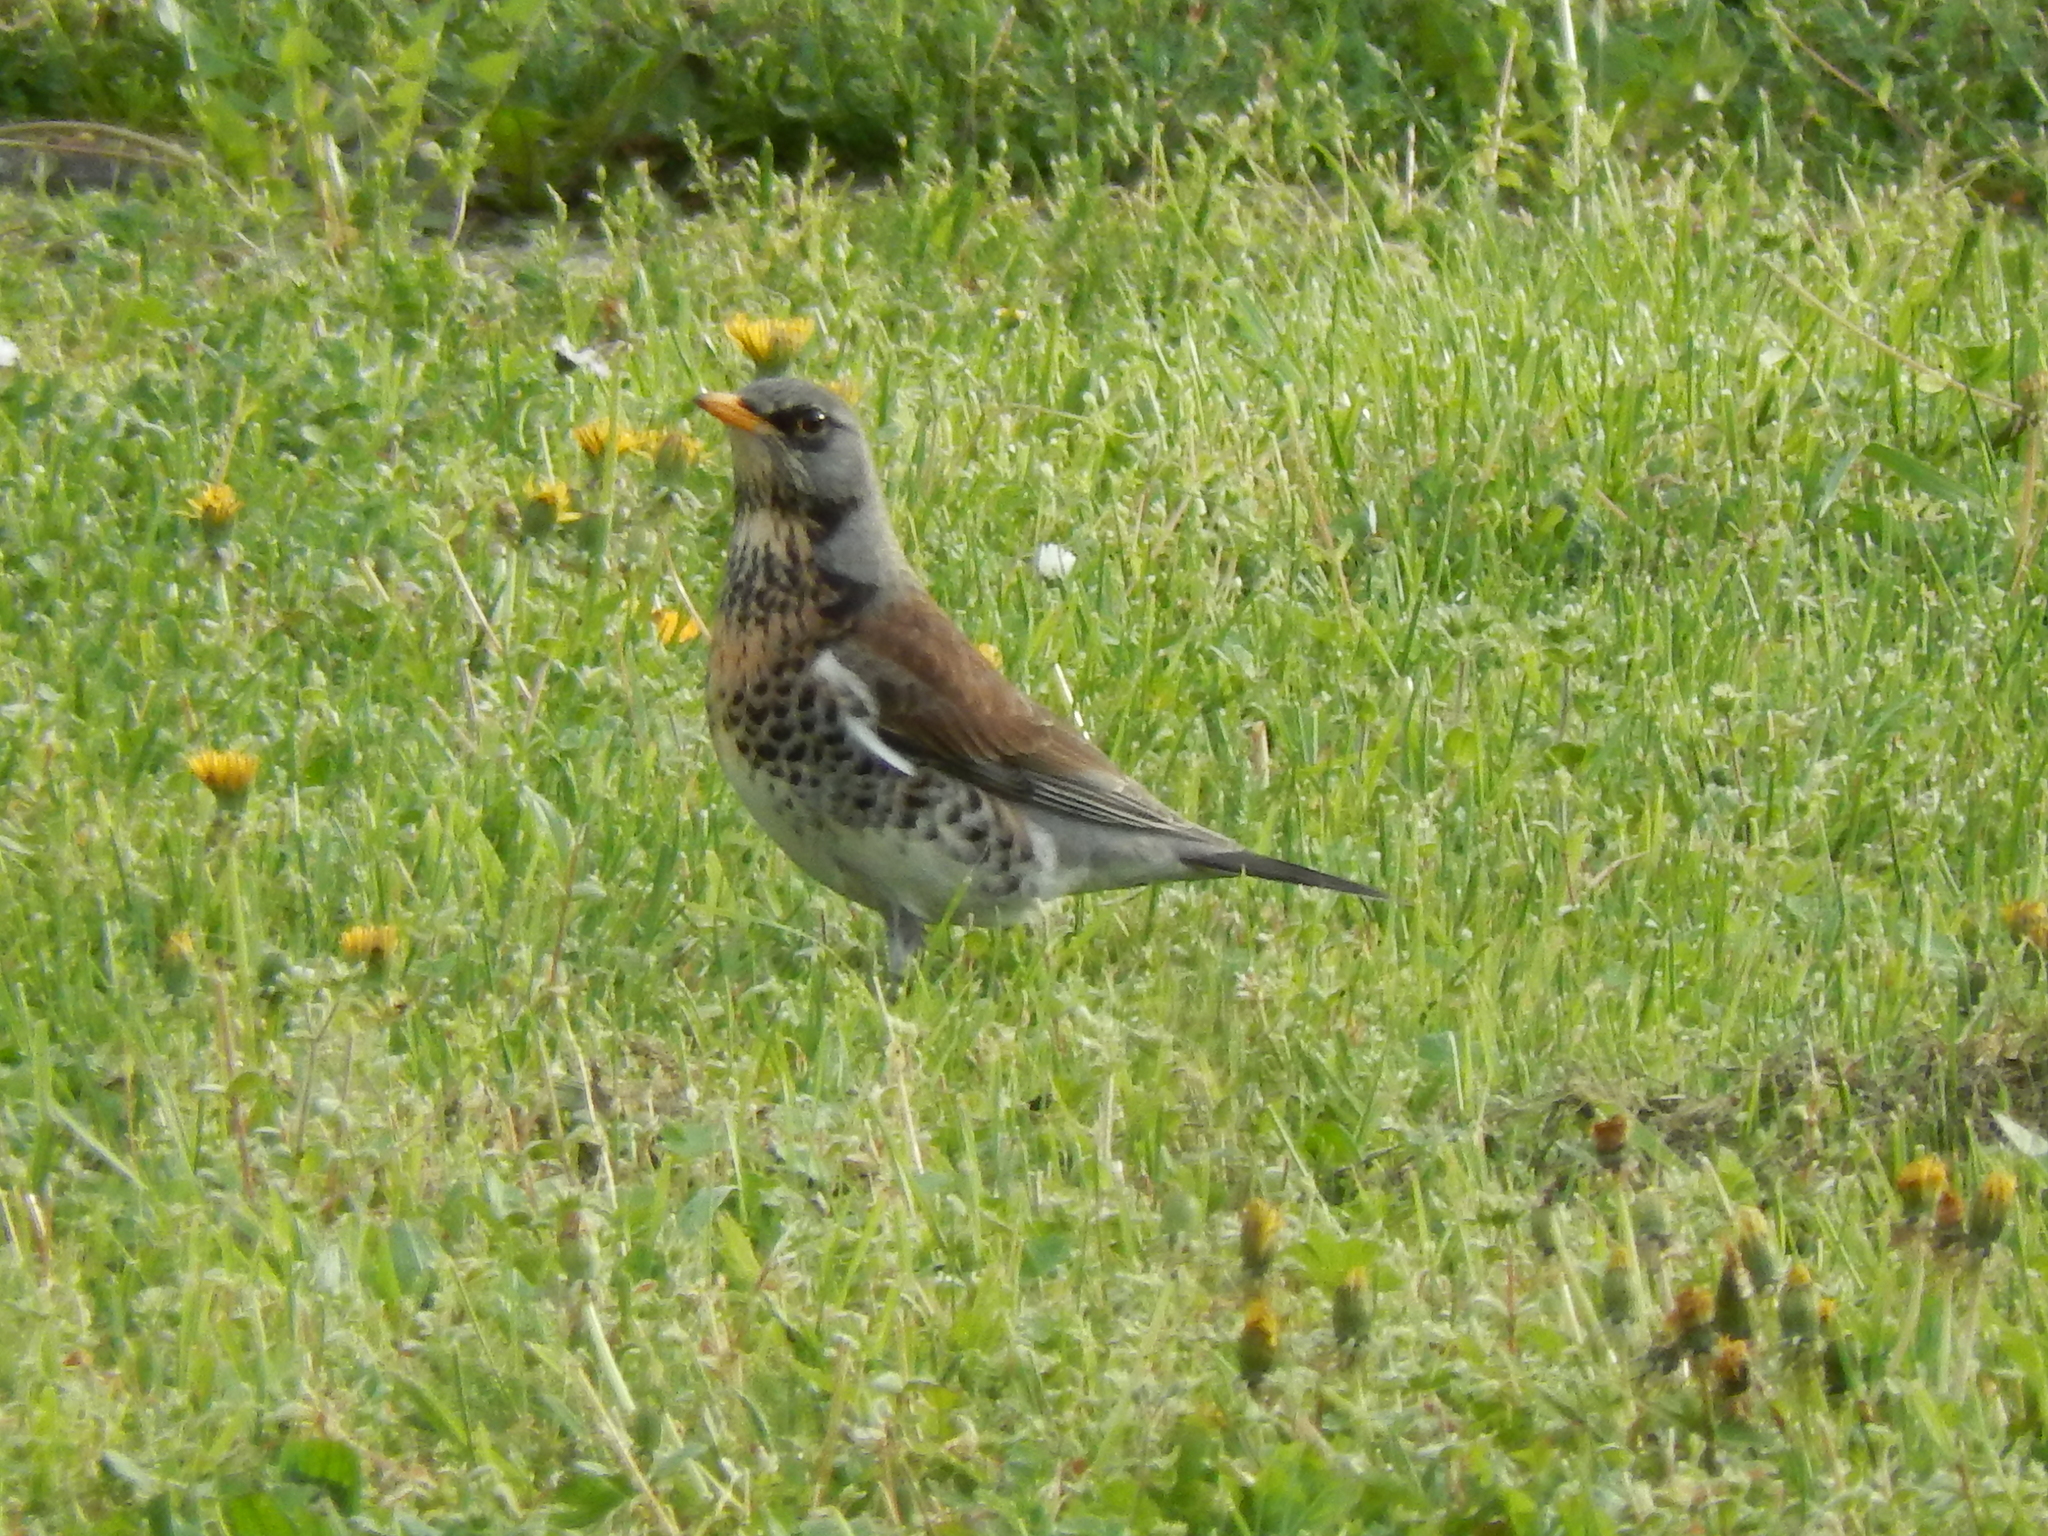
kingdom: Animalia
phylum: Chordata
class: Aves
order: Passeriformes
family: Turdidae
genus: Turdus
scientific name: Turdus pilaris
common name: Fieldfare
